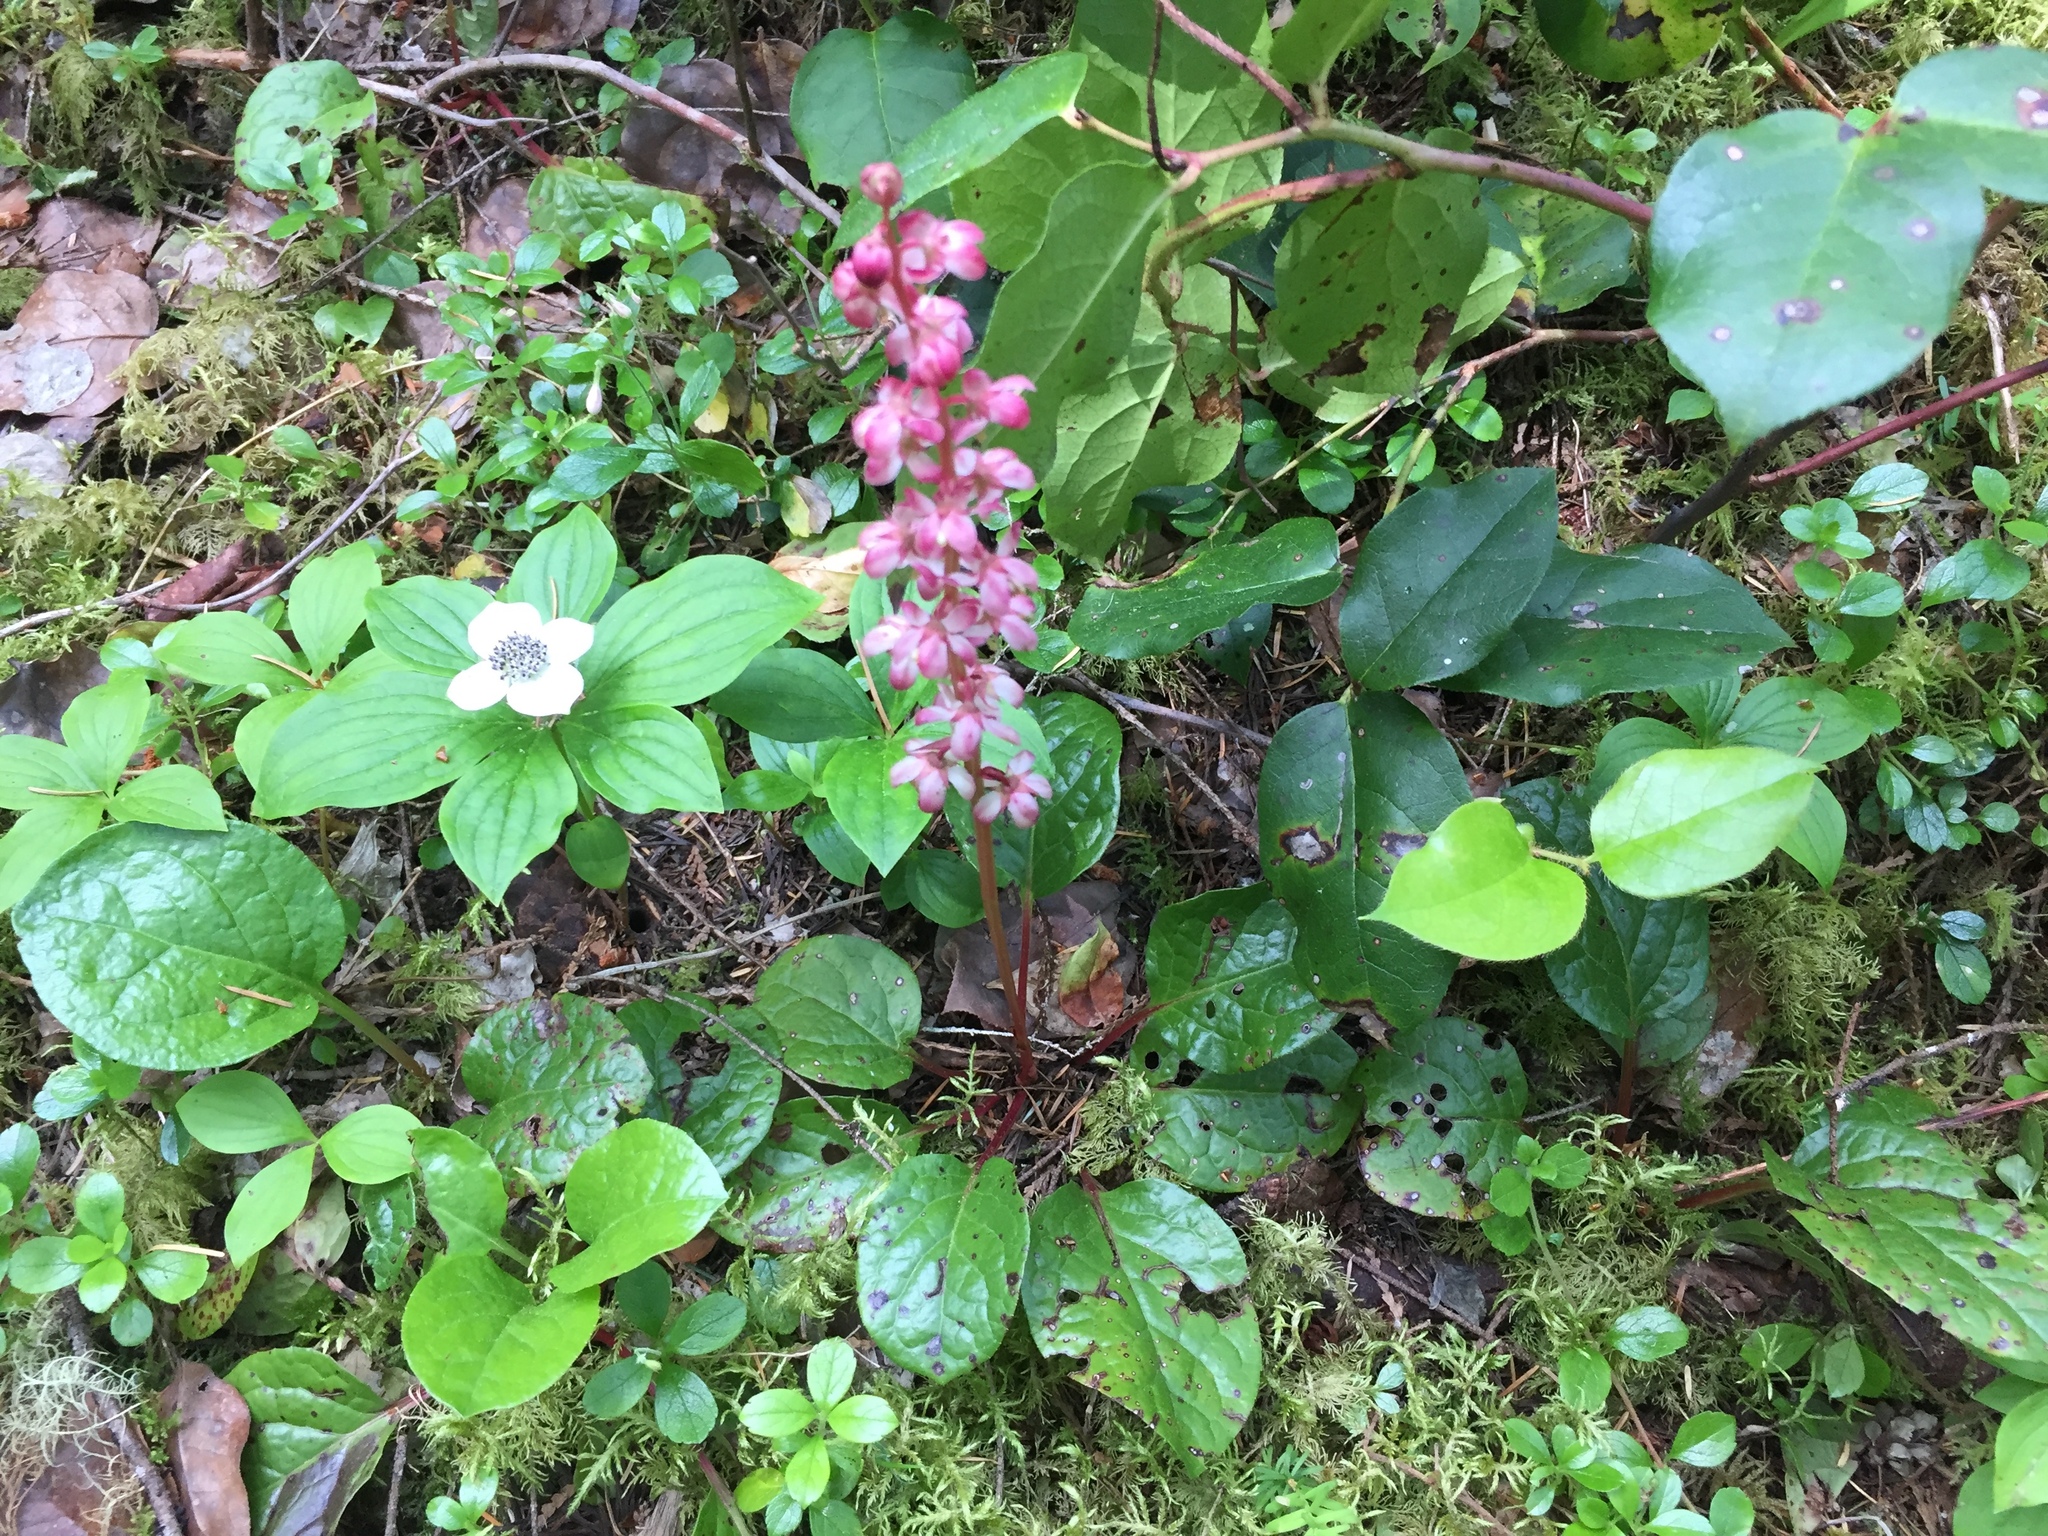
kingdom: Plantae
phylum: Tracheophyta
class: Magnoliopsida
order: Ericales
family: Ericaceae
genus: Pyrola
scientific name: Pyrola asarifolia
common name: Bog wintergreen
